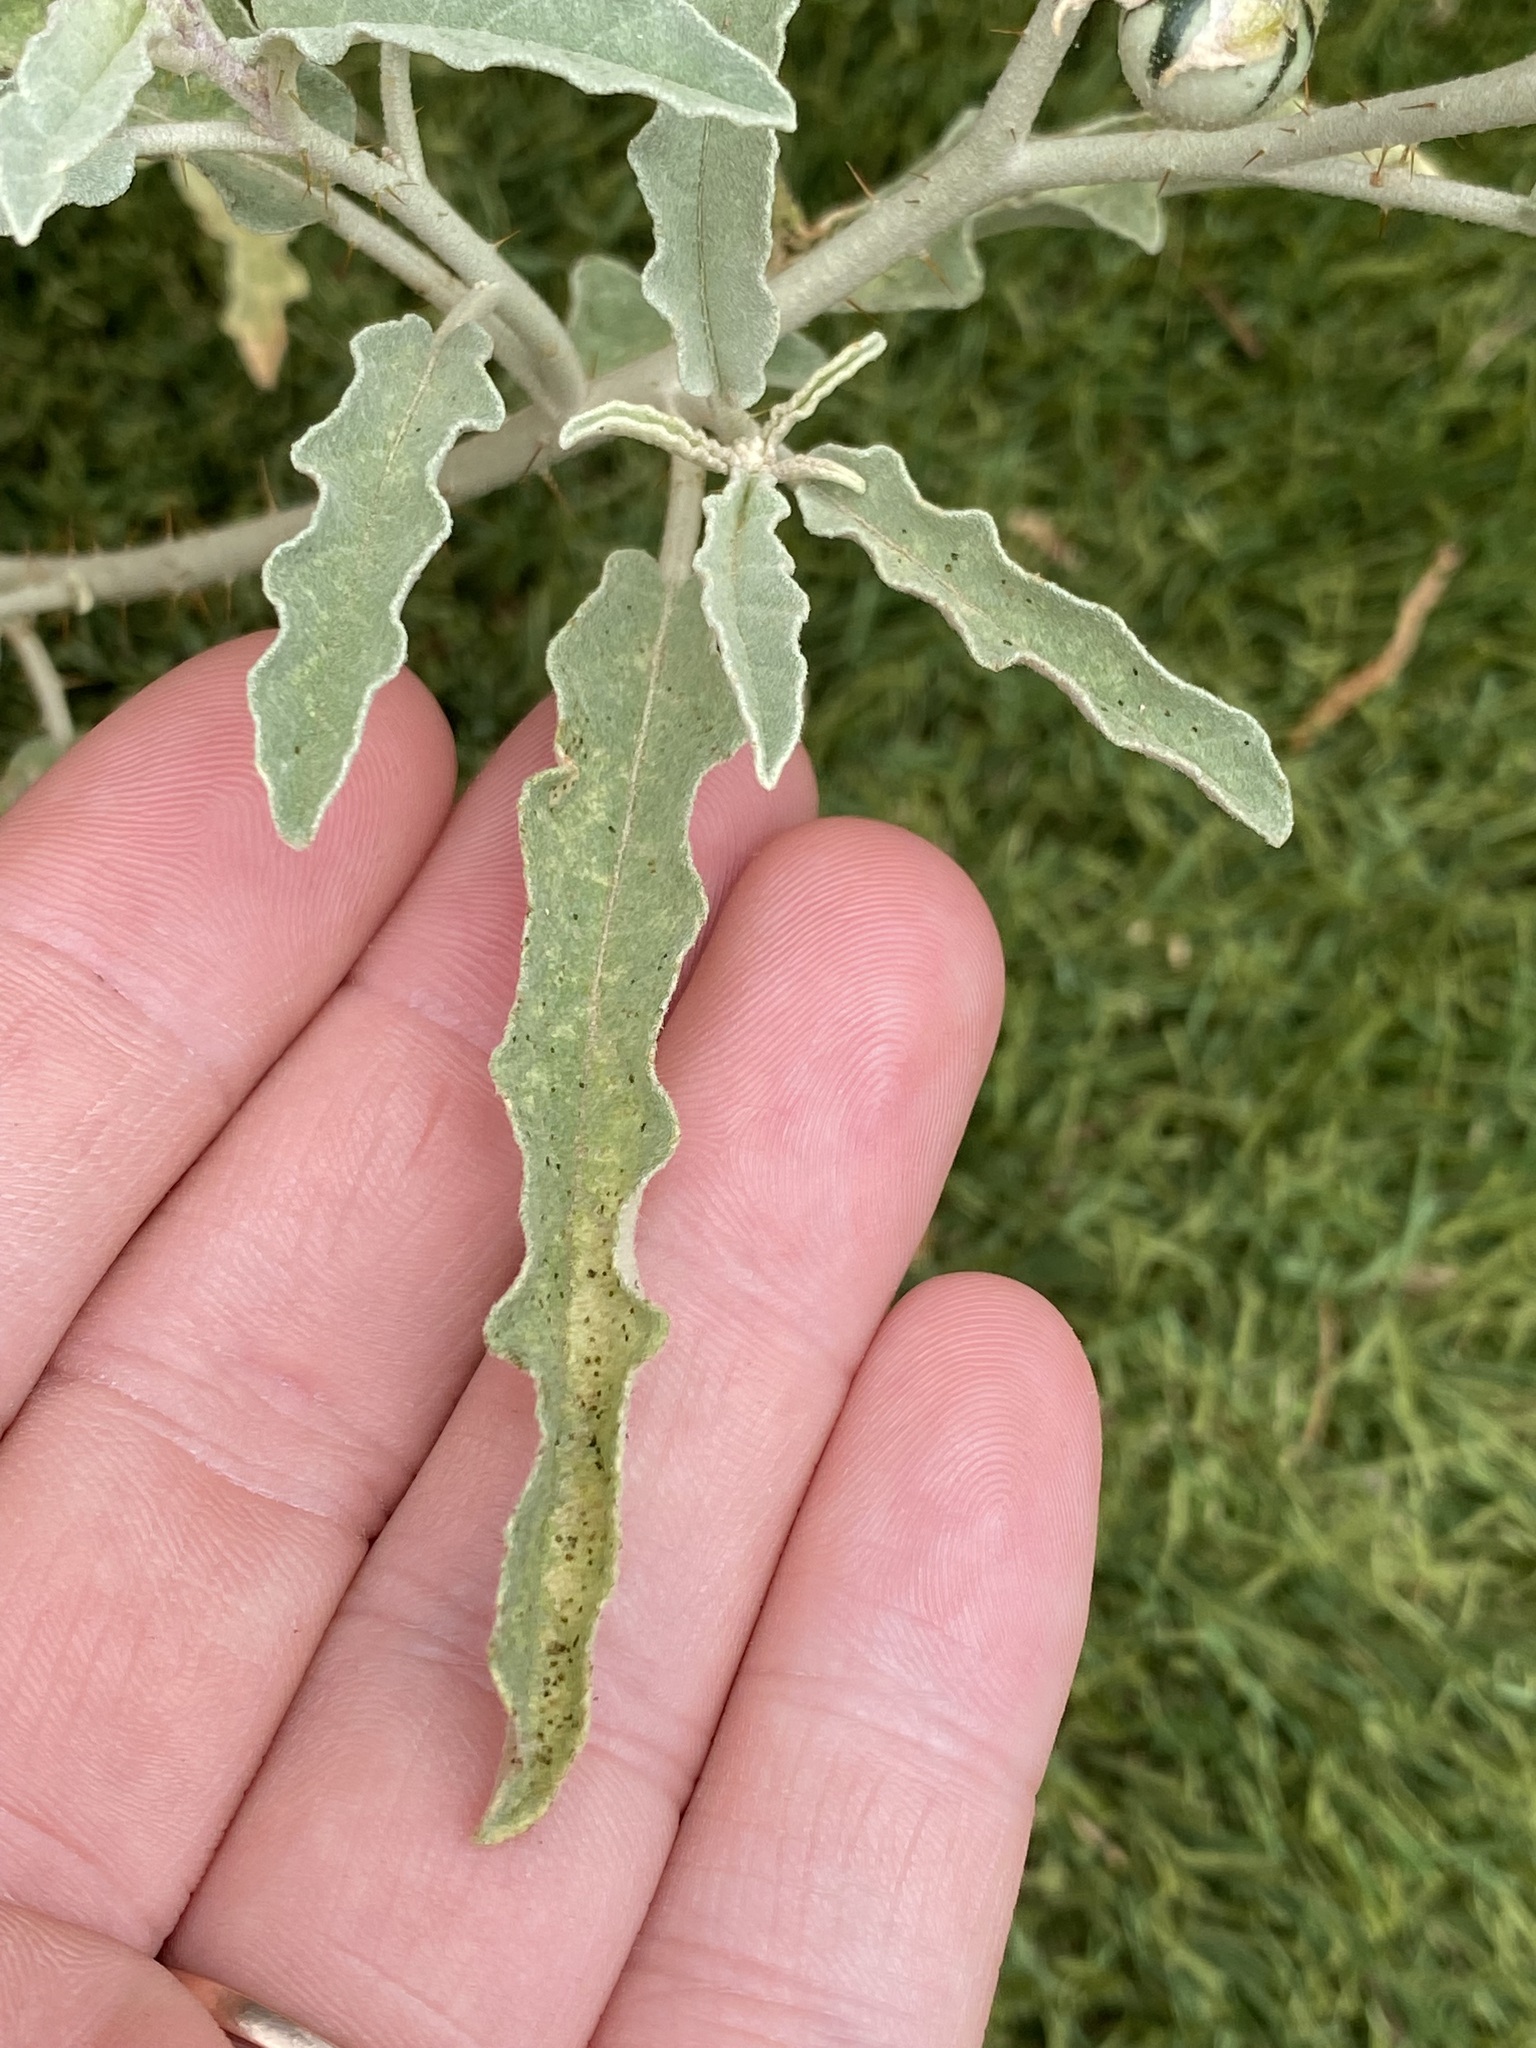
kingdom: Plantae
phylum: Tracheophyta
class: Magnoliopsida
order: Solanales
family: Solanaceae
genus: Solanum
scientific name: Solanum elaeagnifolium
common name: Silverleaf nightshade
